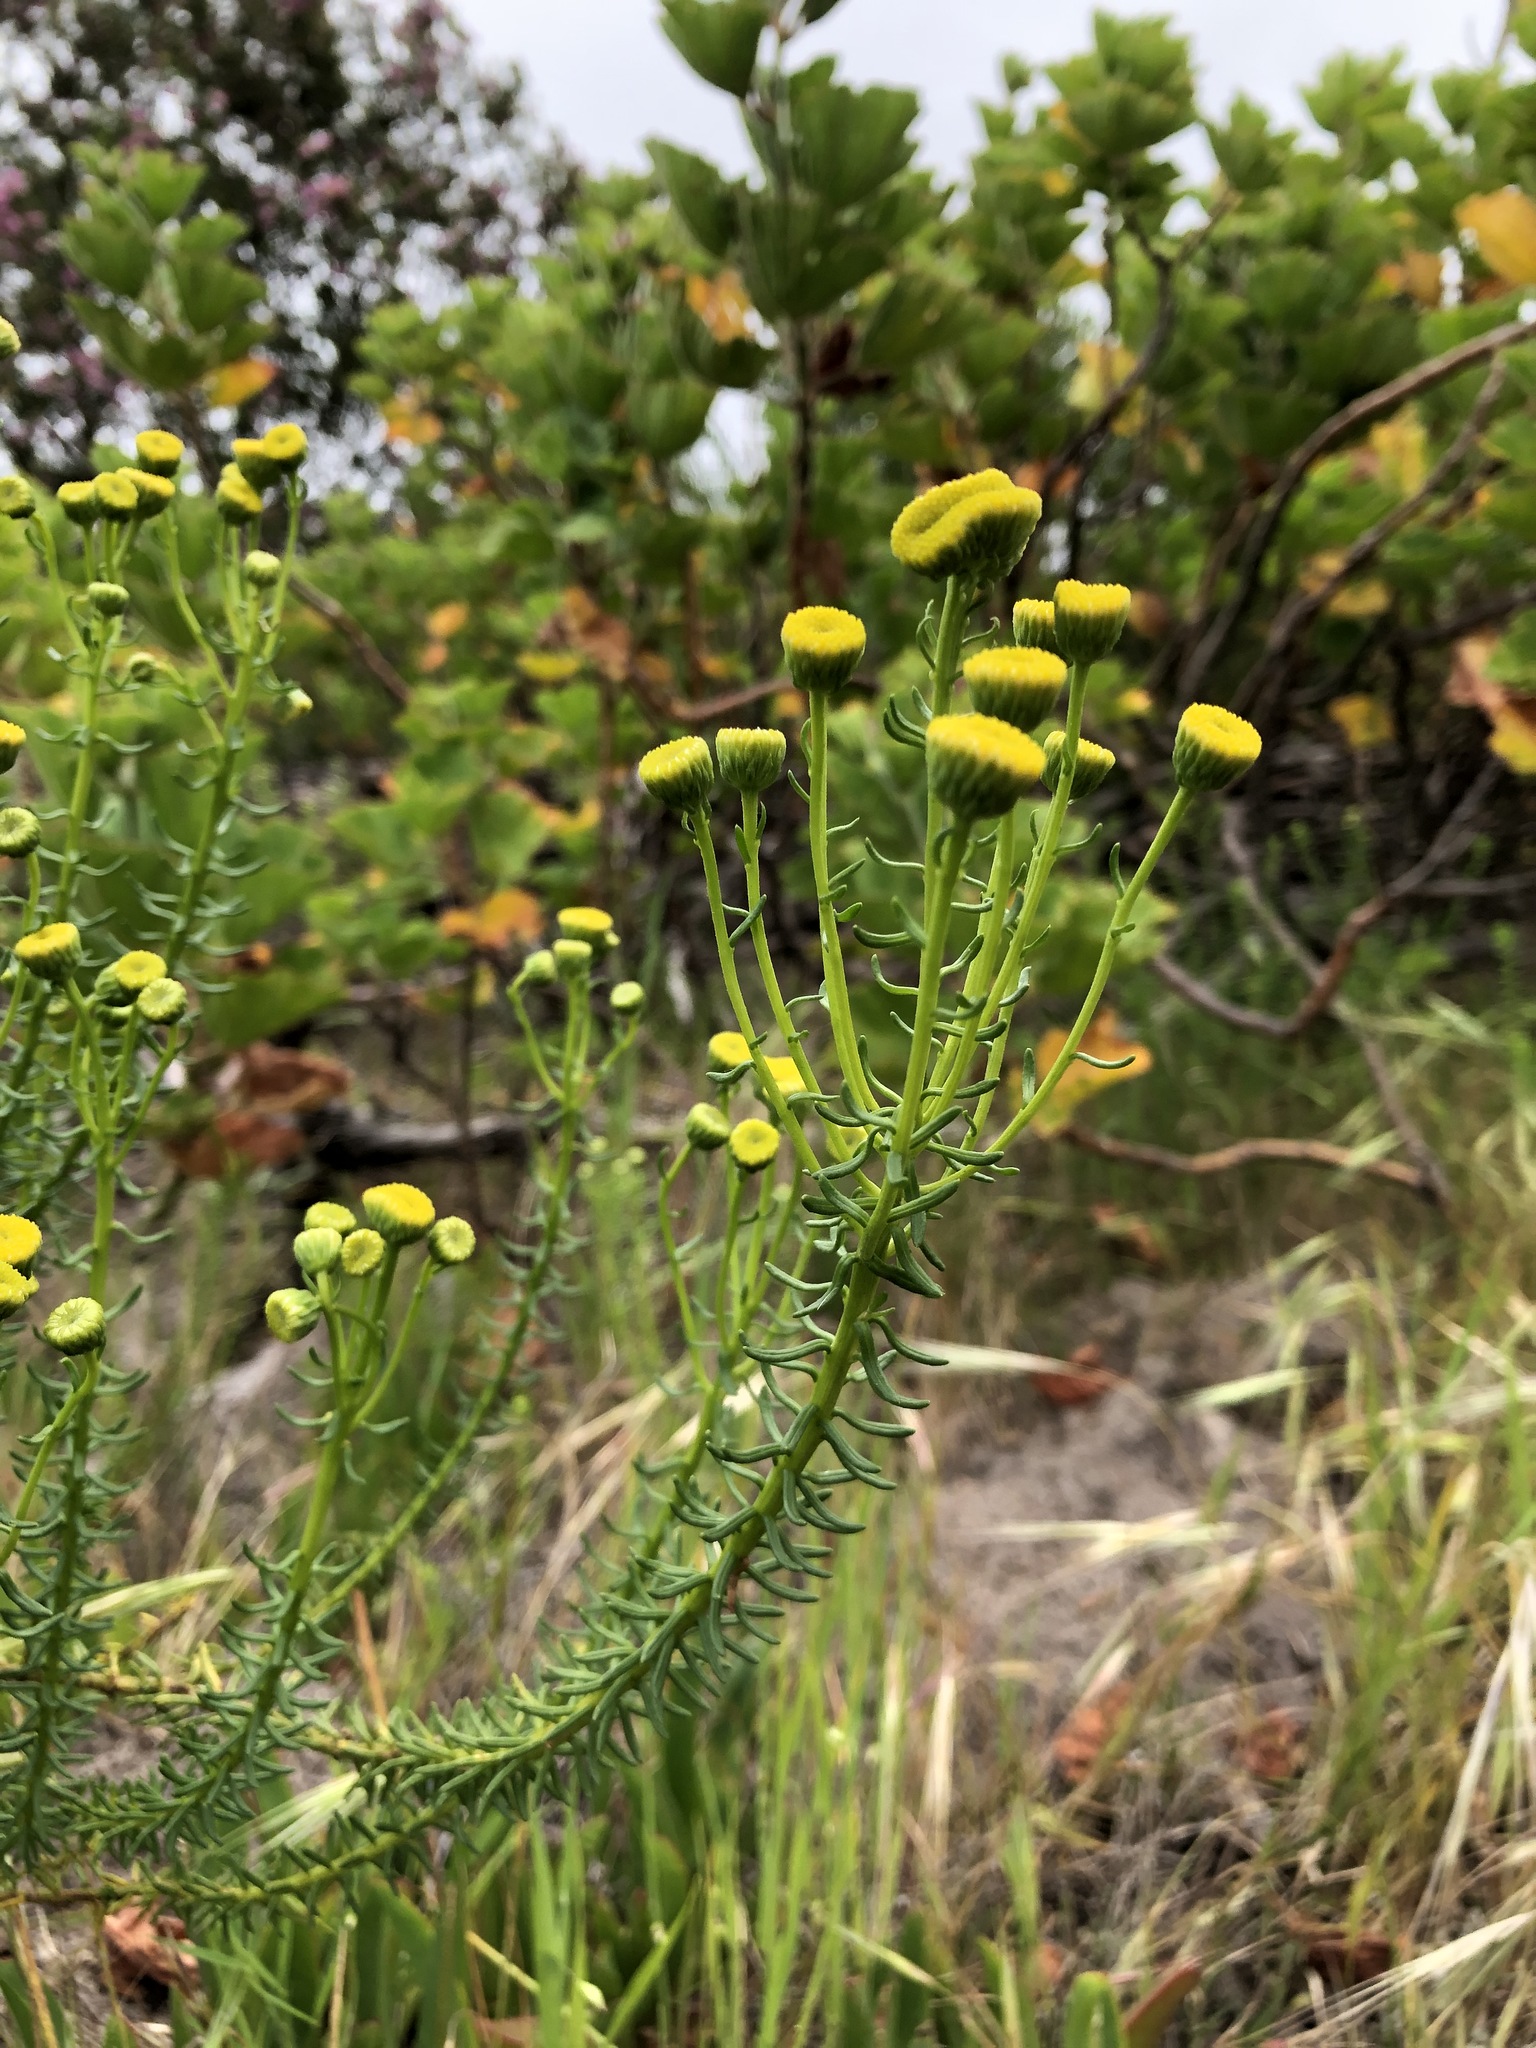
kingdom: Plantae
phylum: Tracheophyta
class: Magnoliopsida
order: Asterales
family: Asteraceae
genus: Chrysocoma
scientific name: Chrysocoma cernua
